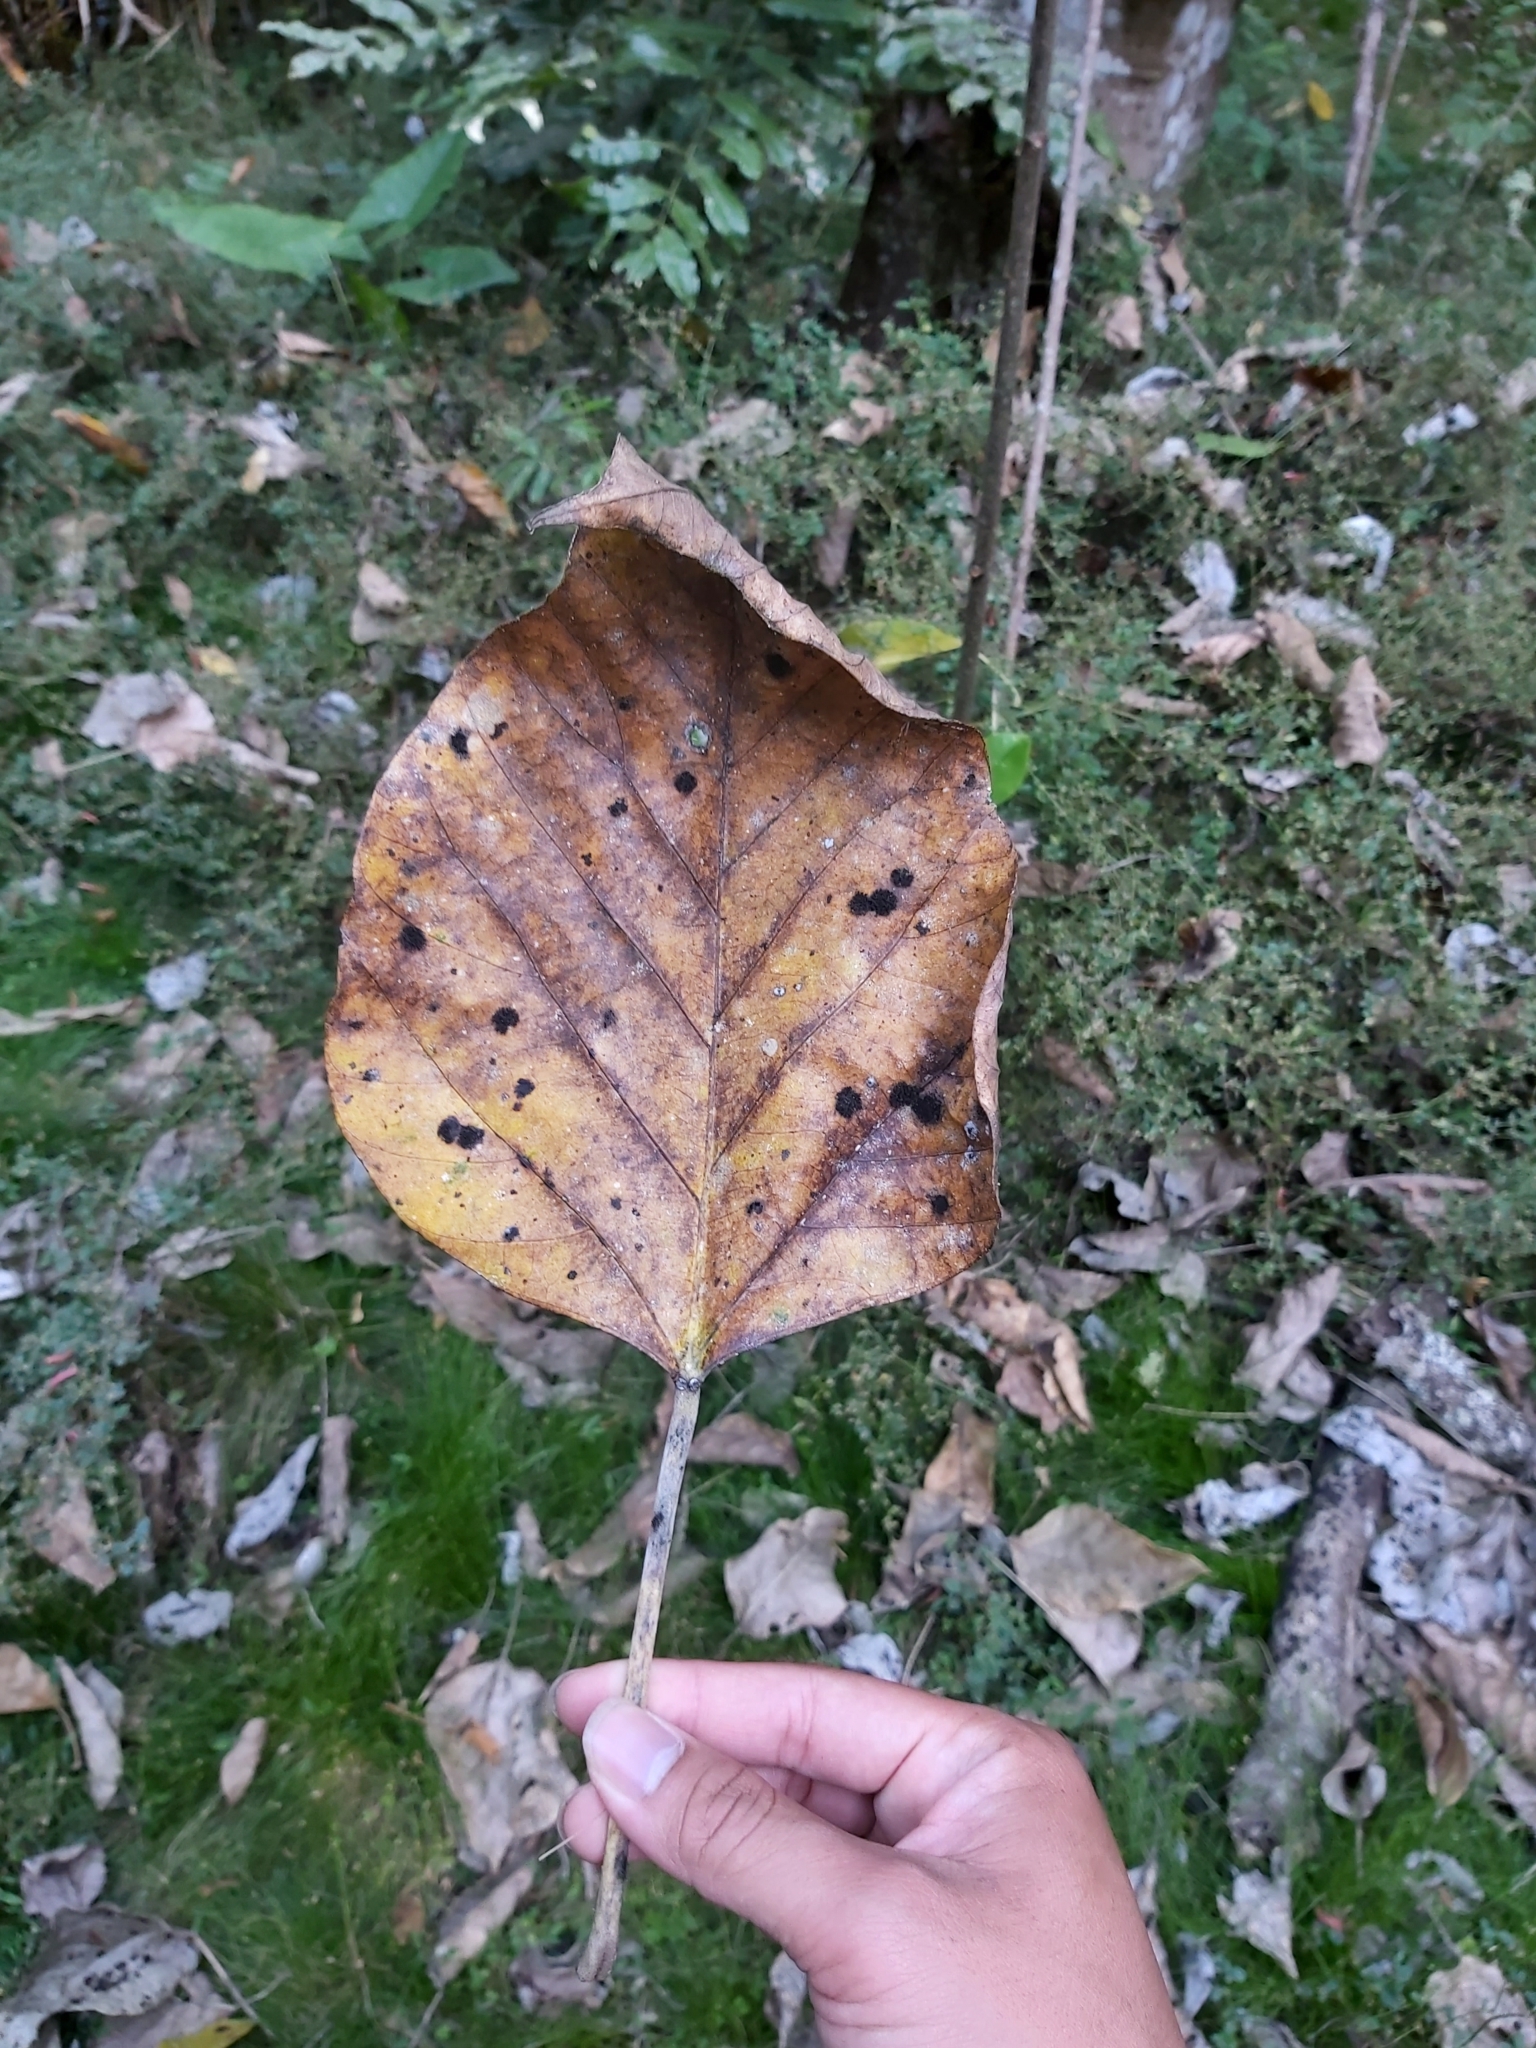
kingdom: Plantae
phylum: Tracheophyta
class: Magnoliopsida
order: Malpighiales
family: Euphorbiaceae
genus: Aleurites
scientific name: Aleurites rockinghamensis
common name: Candelnut
